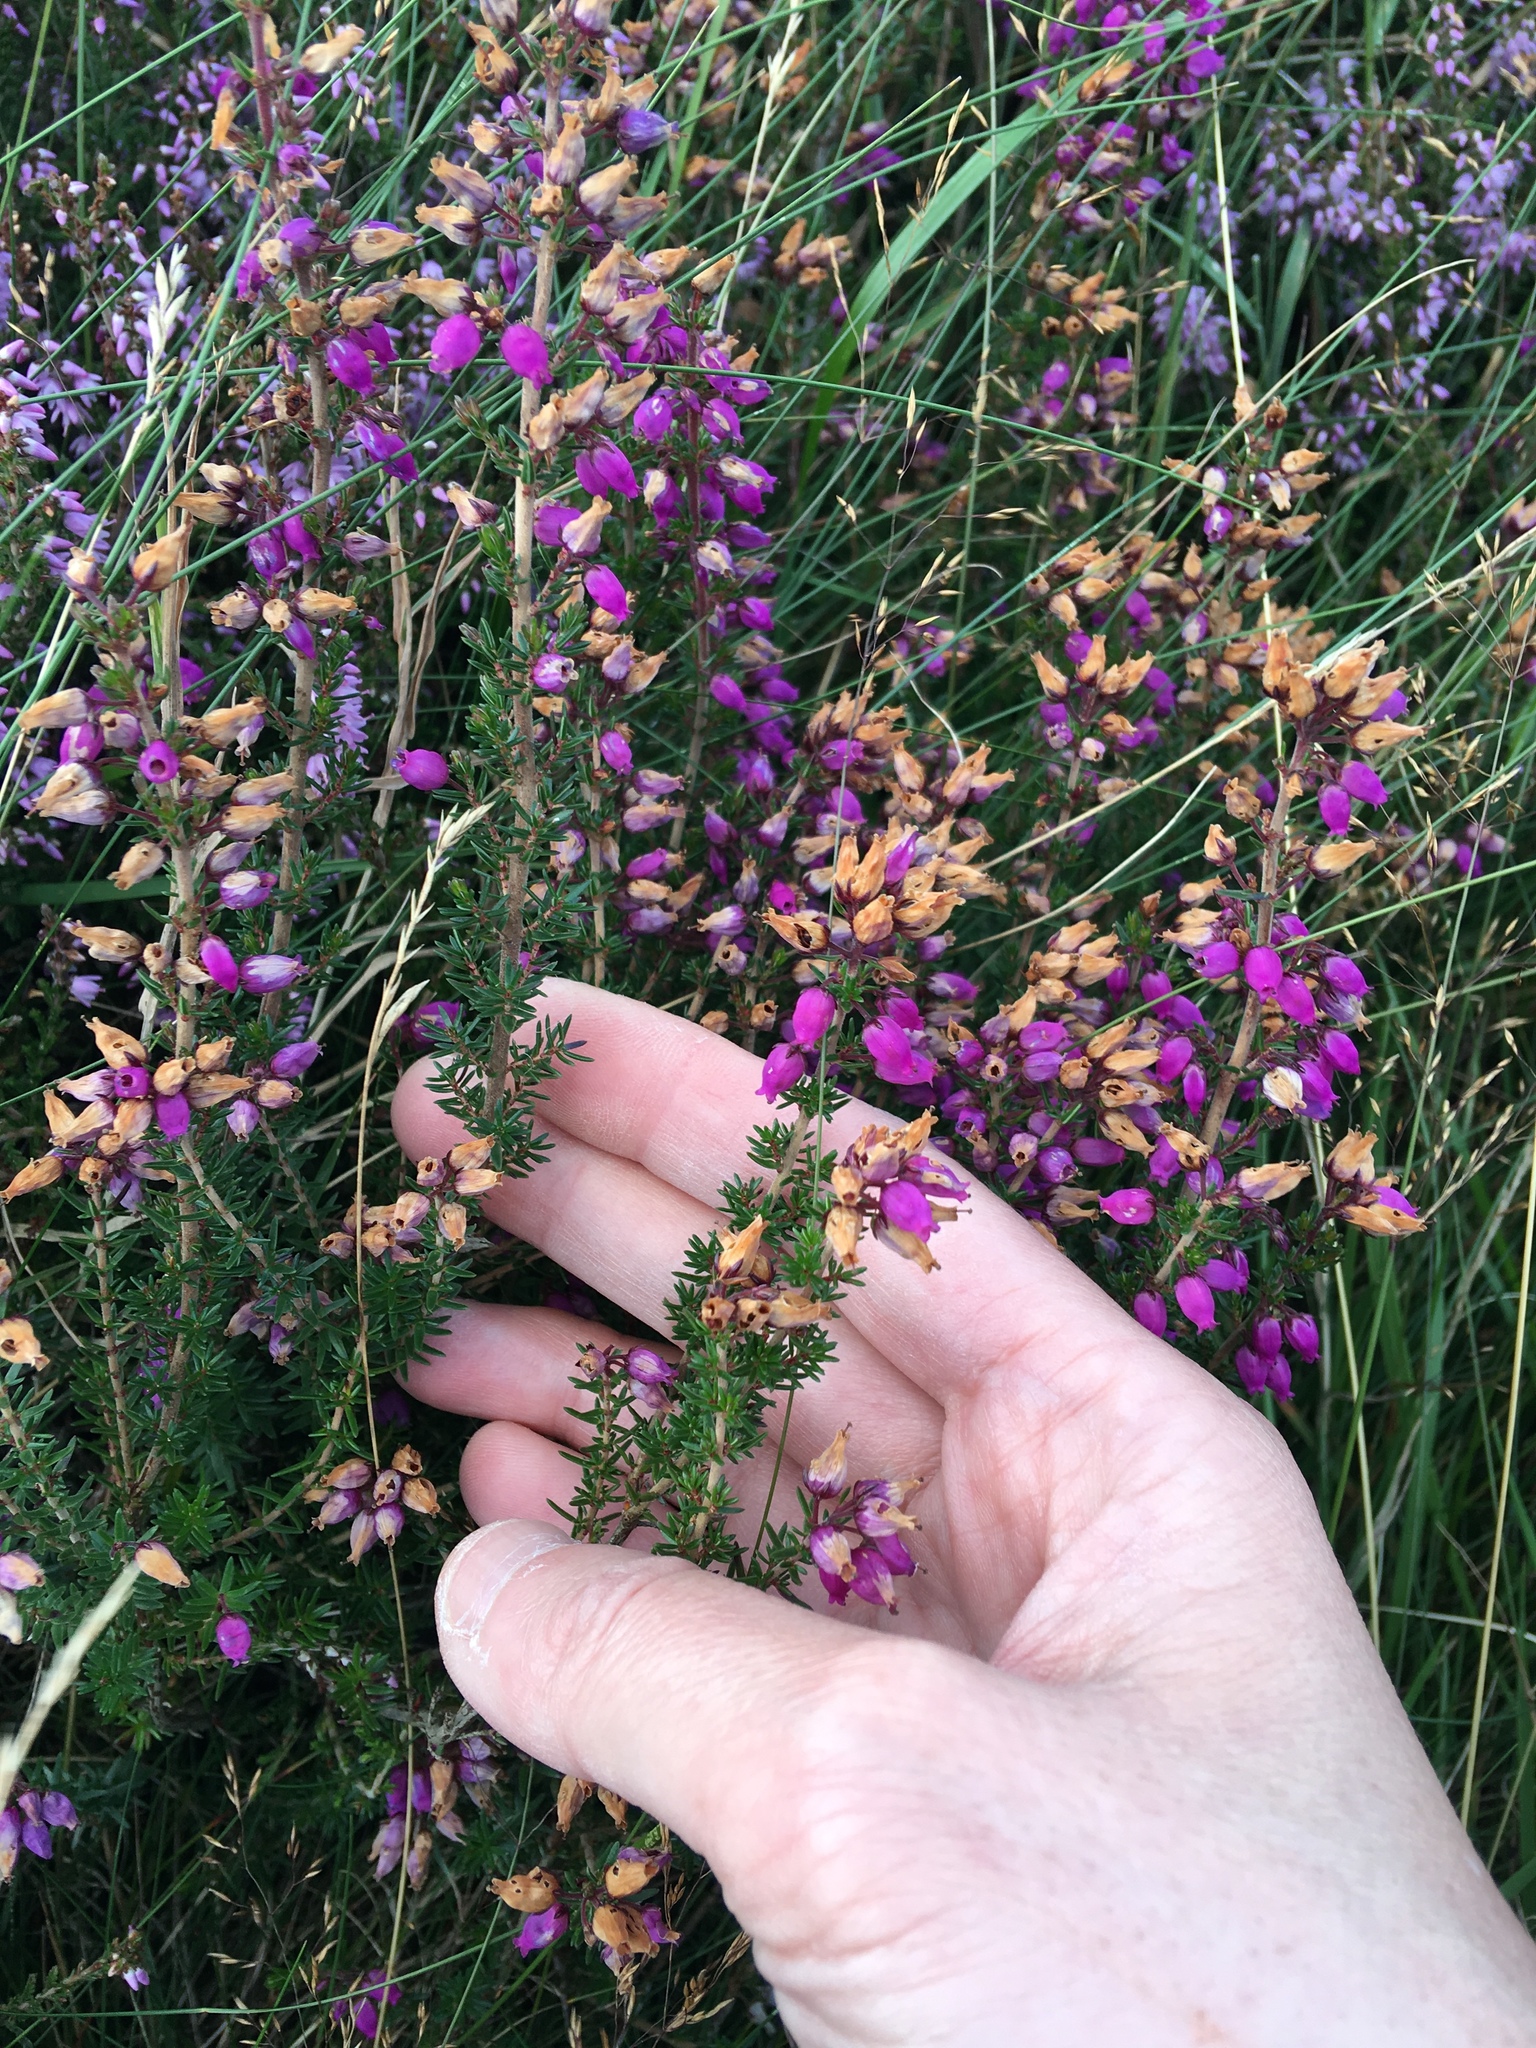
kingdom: Plantae
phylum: Tracheophyta
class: Magnoliopsida
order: Ericales
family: Ericaceae
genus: Erica
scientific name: Erica cinerea
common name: Bell heather
